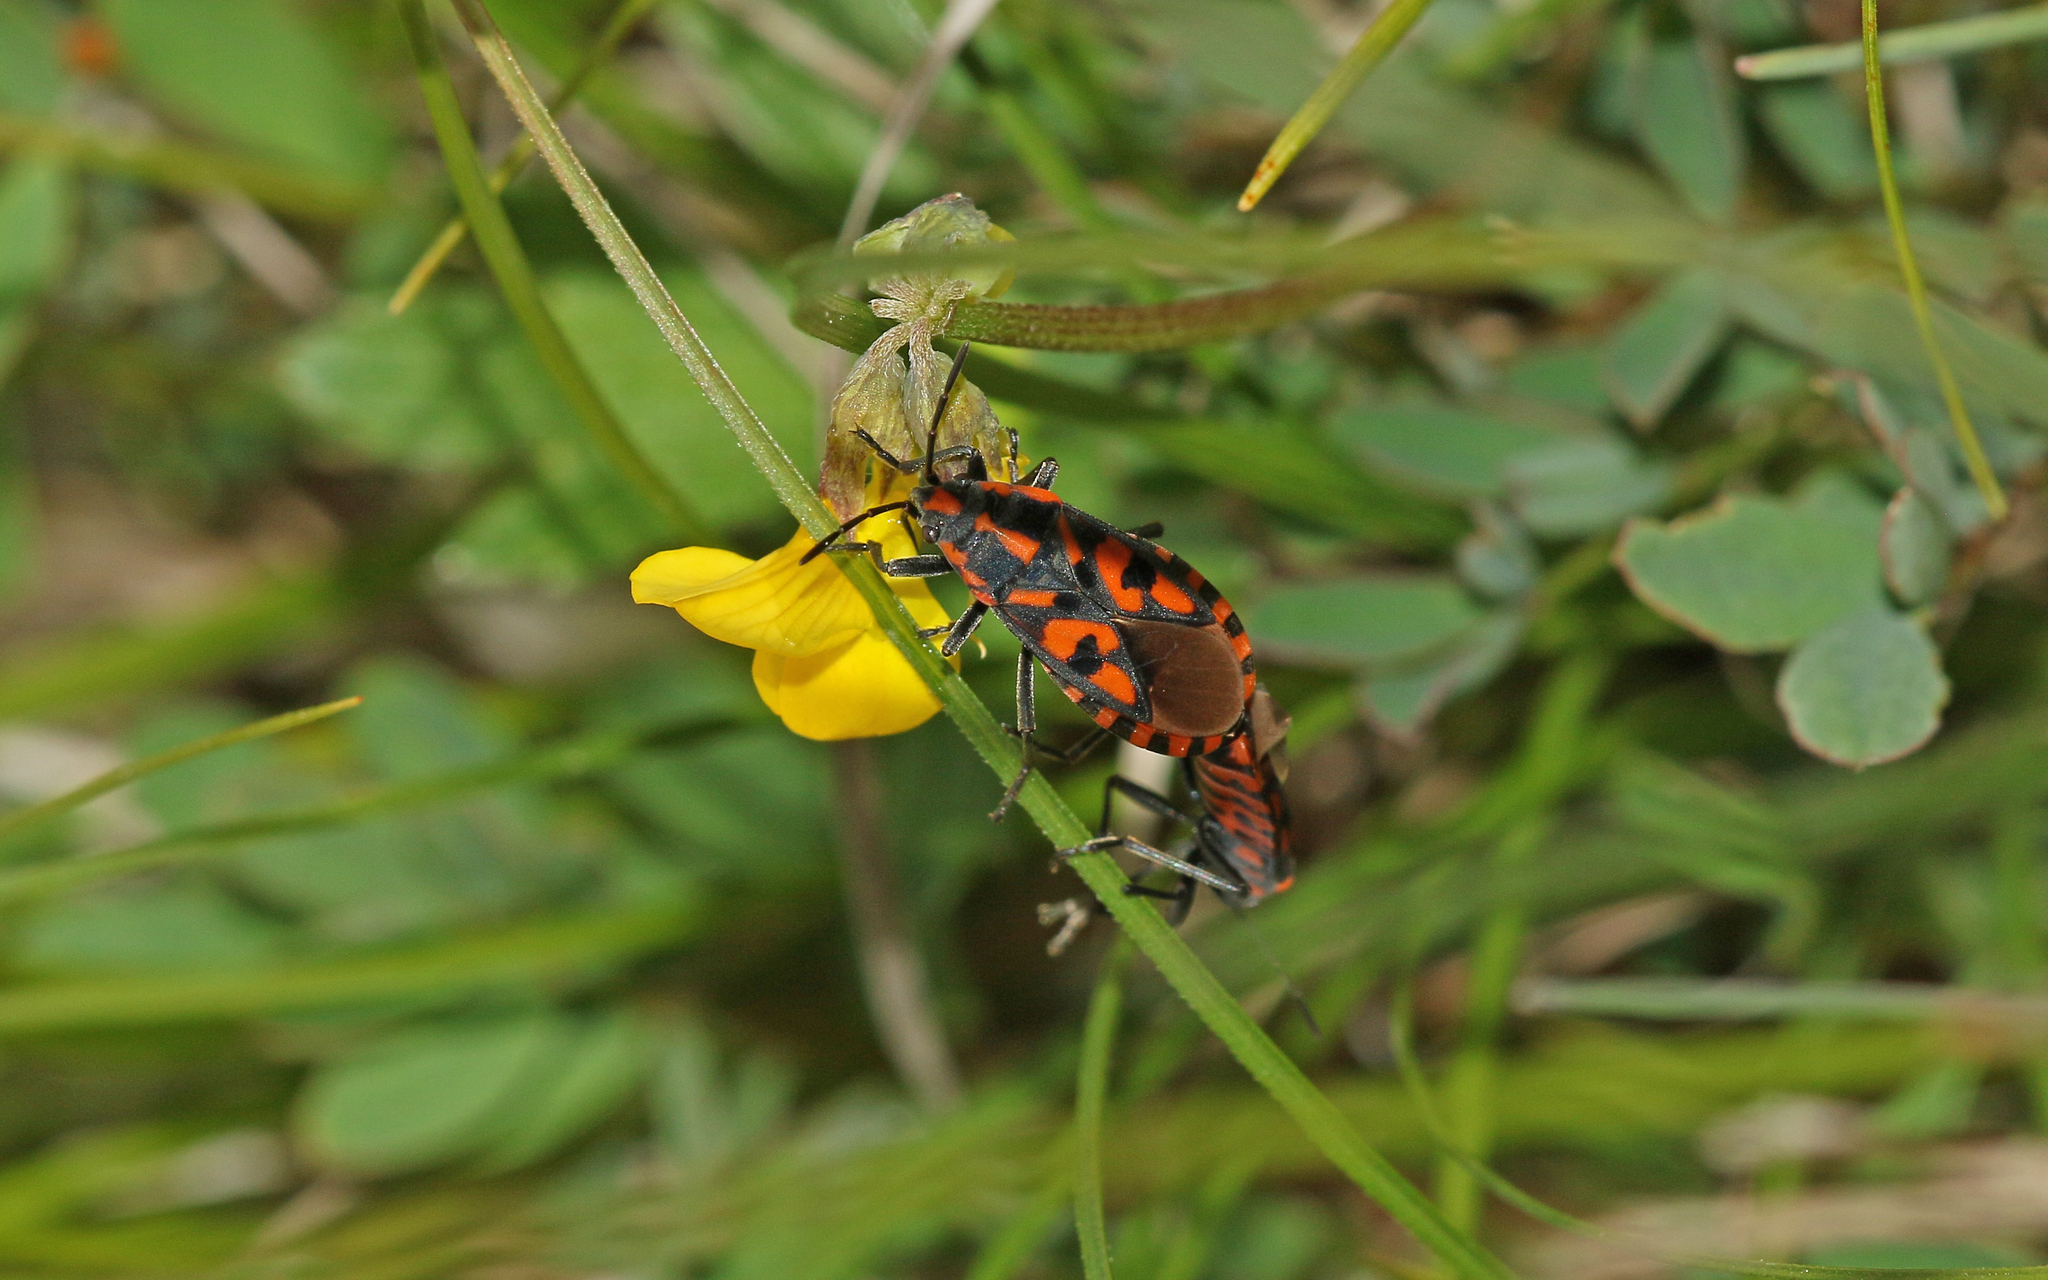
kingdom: Animalia
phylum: Arthropoda
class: Insecta
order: Hemiptera
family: Lygaeidae
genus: Spilostethus
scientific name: Spilostethus saxatilis
